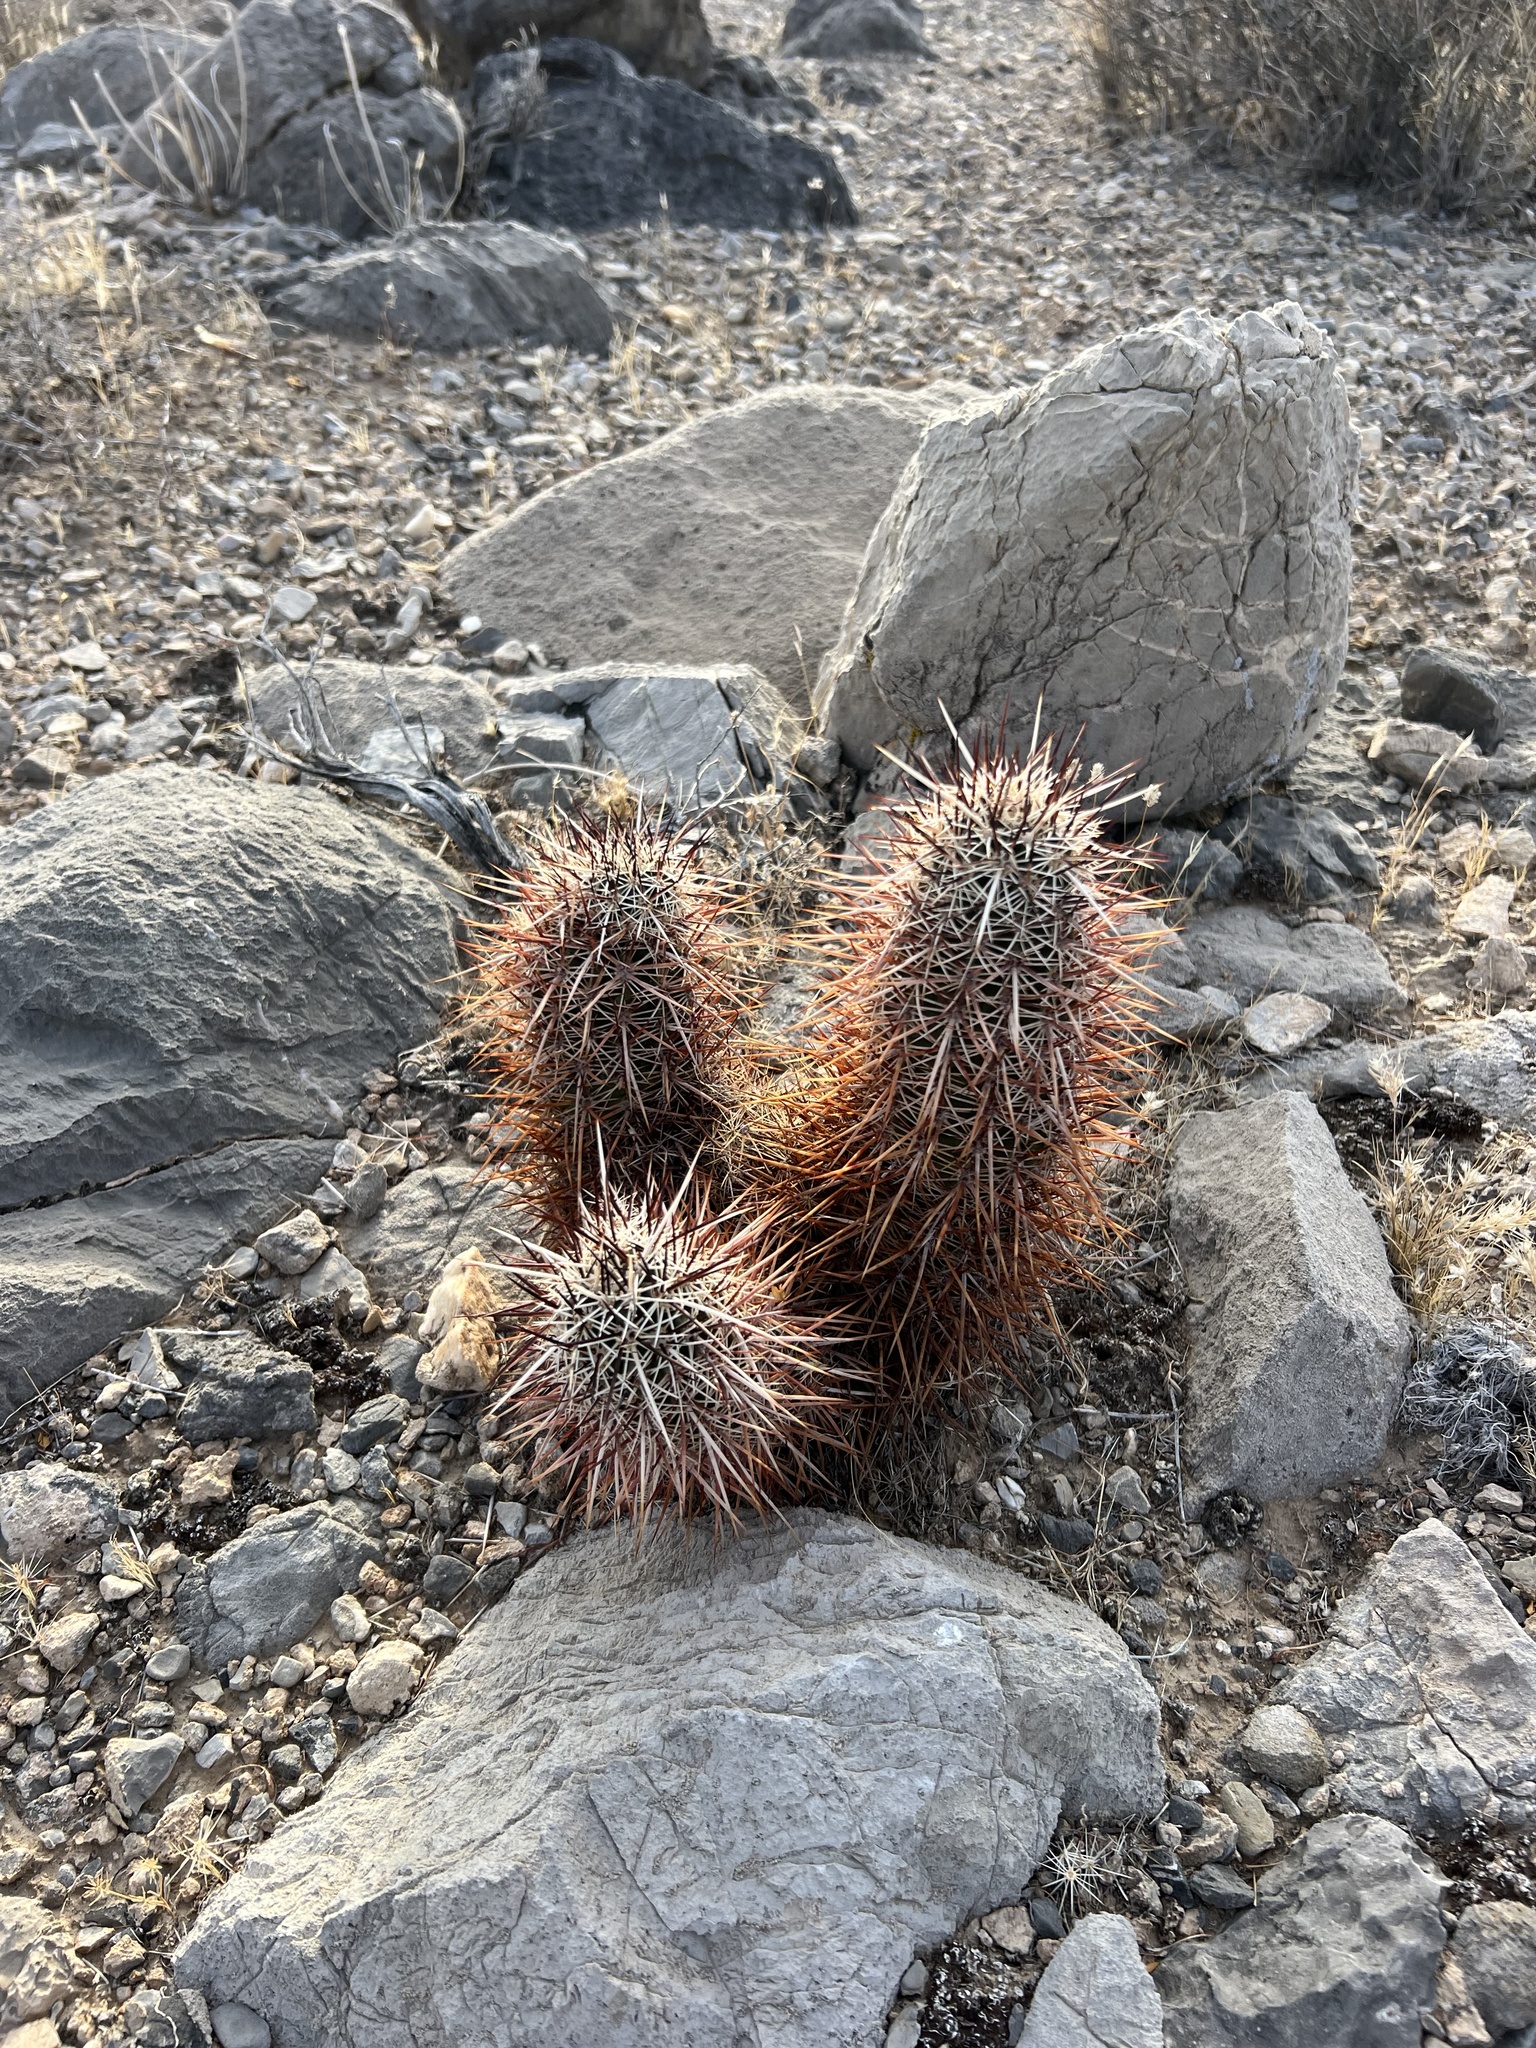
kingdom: Plantae
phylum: Tracheophyta
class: Magnoliopsida
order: Caryophyllales
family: Cactaceae
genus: Echinocereus
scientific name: Echinocereus engelmannii
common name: Engelmann's hedgehog cactus
